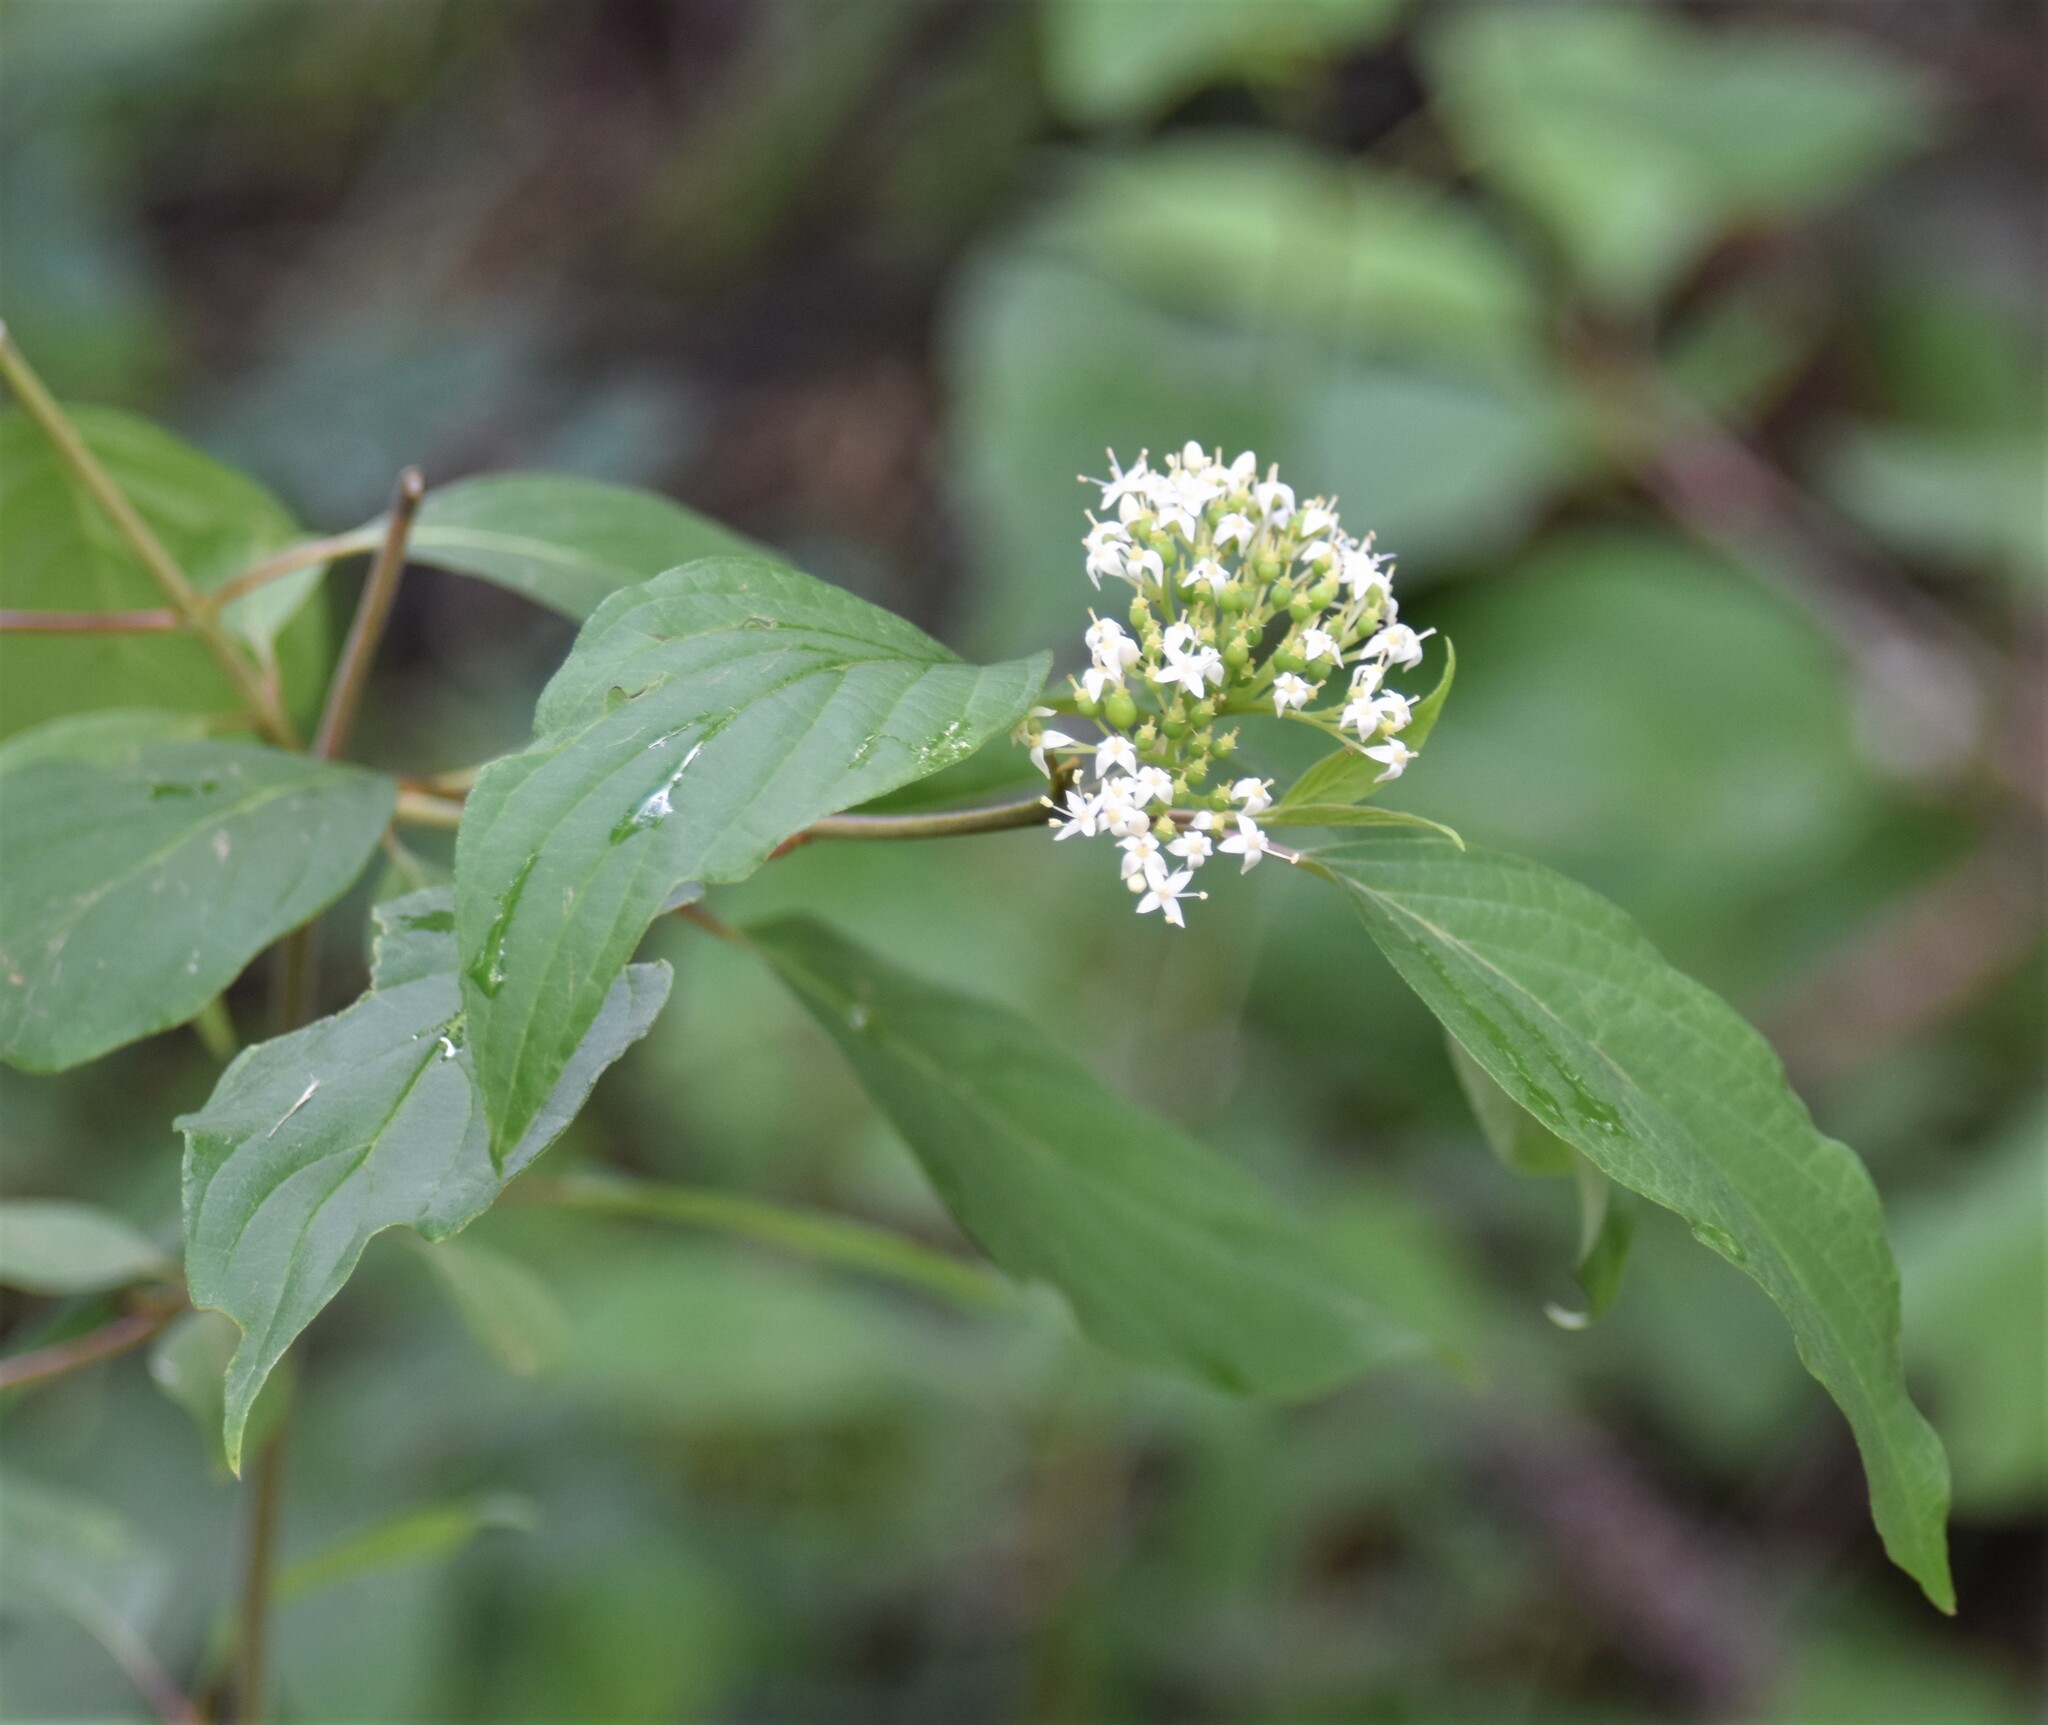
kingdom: Plantae
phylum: Tracheophyta
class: Magnoliopsida
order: Cornales
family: Cornaceae
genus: Cornus
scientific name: Cornus sericea
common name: Red-osier dogwood
